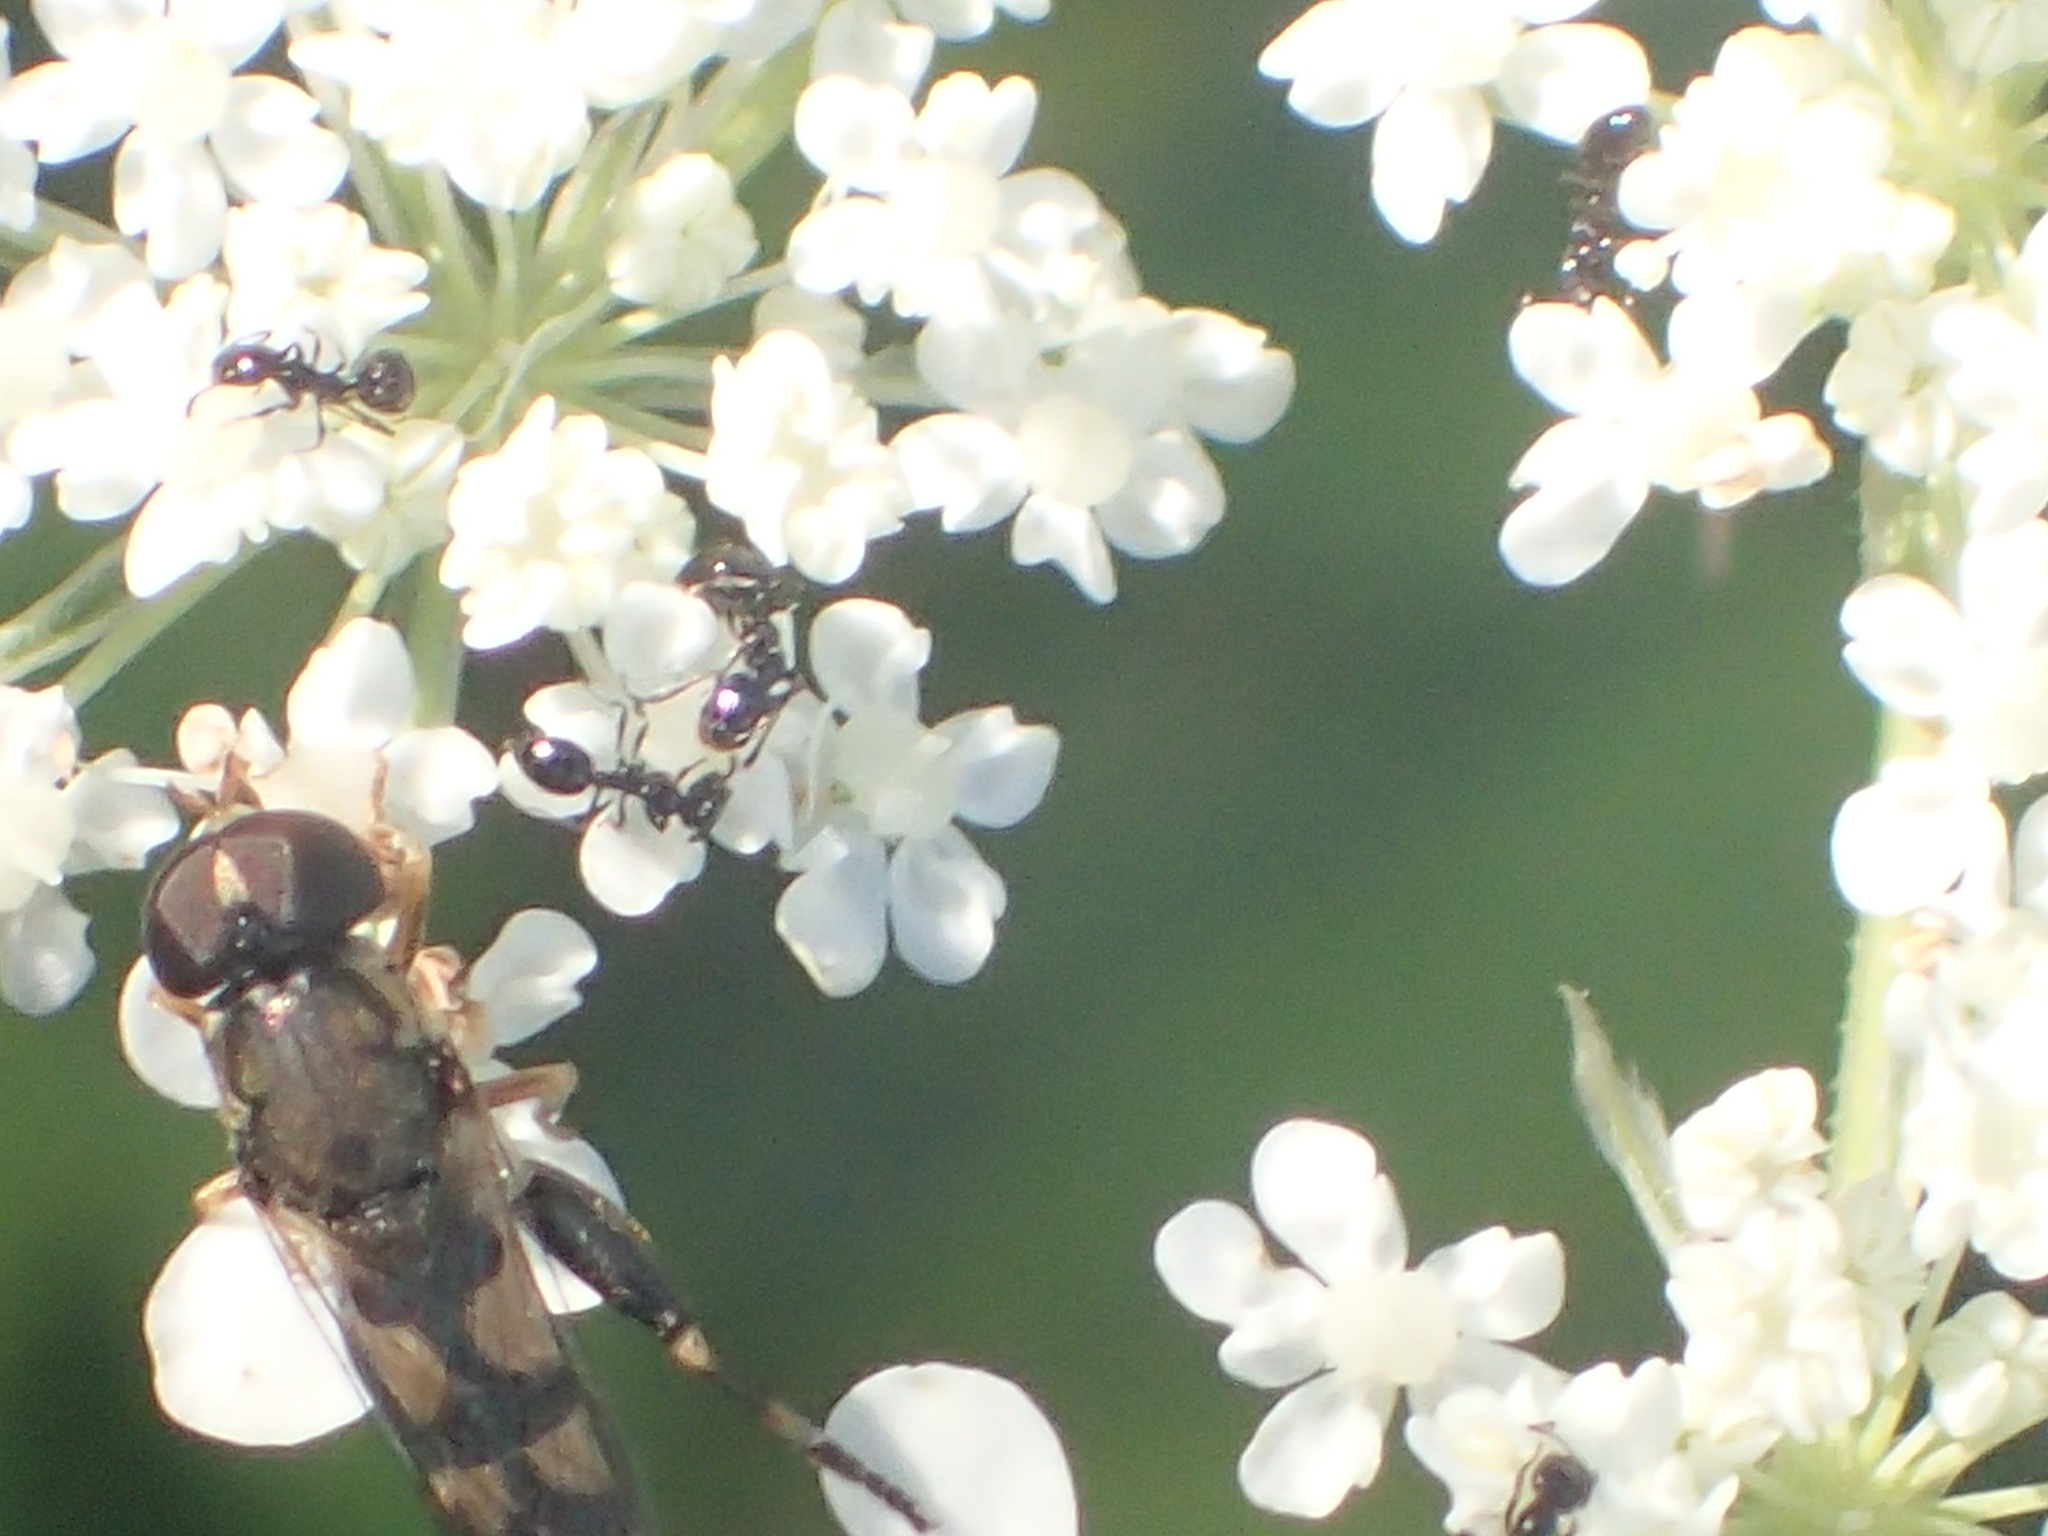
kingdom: Animalia
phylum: Arthropoda
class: Insecta
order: Diptera
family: Syrphidae
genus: Syritta
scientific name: Syritta pipiens
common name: Hover fly
